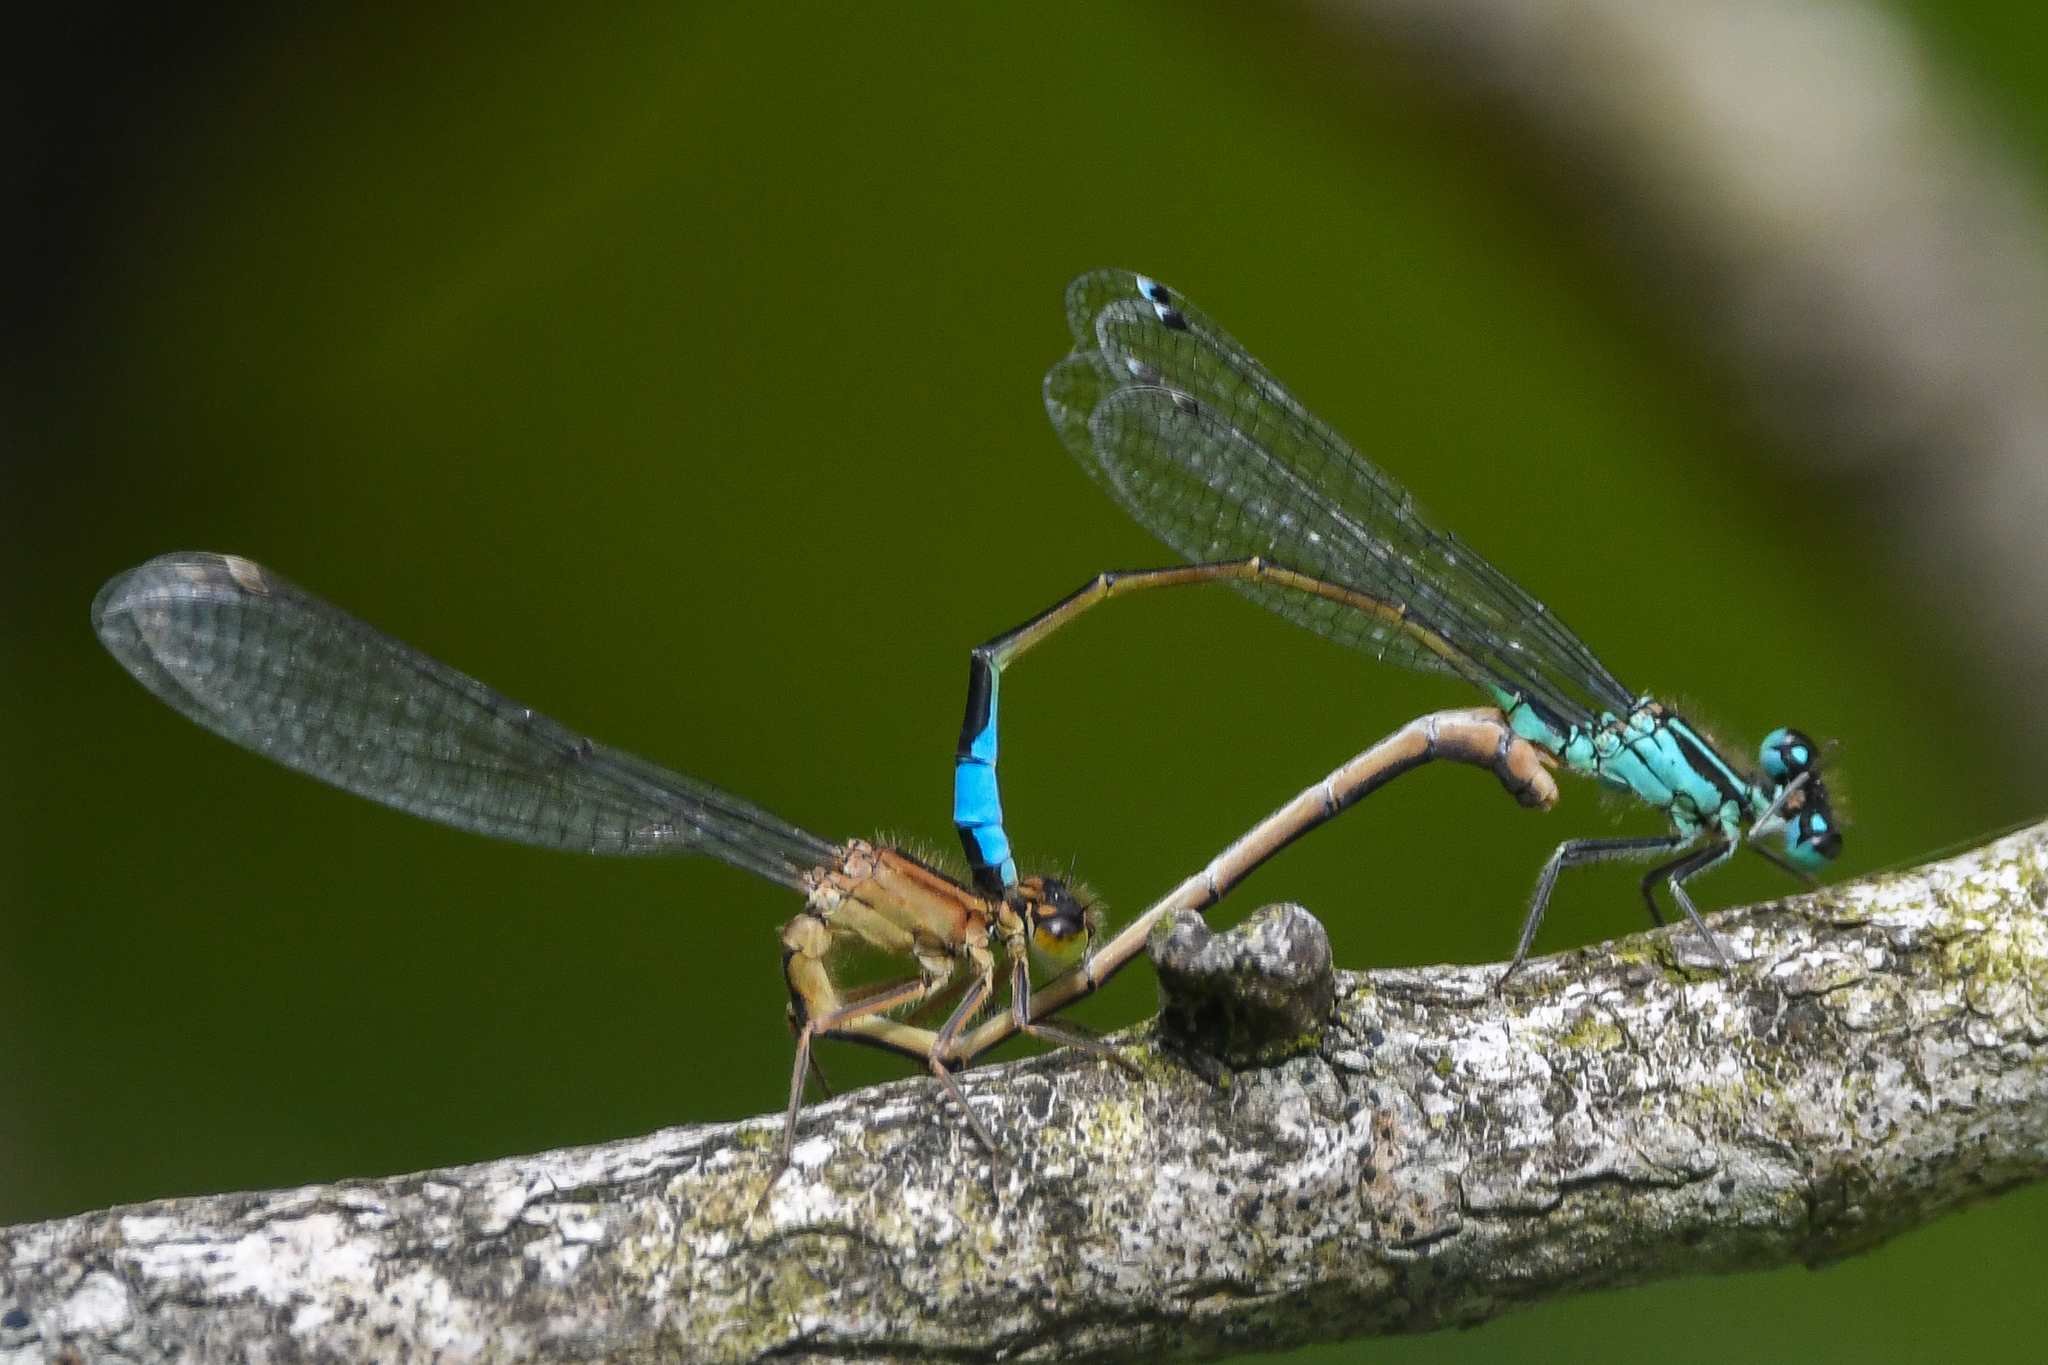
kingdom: Animalia
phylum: Arthropoda
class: Insecta
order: Odonata
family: Coenagrionidae
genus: Ischnura
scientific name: Ischnura elegans
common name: Blue-tailed damselfly
